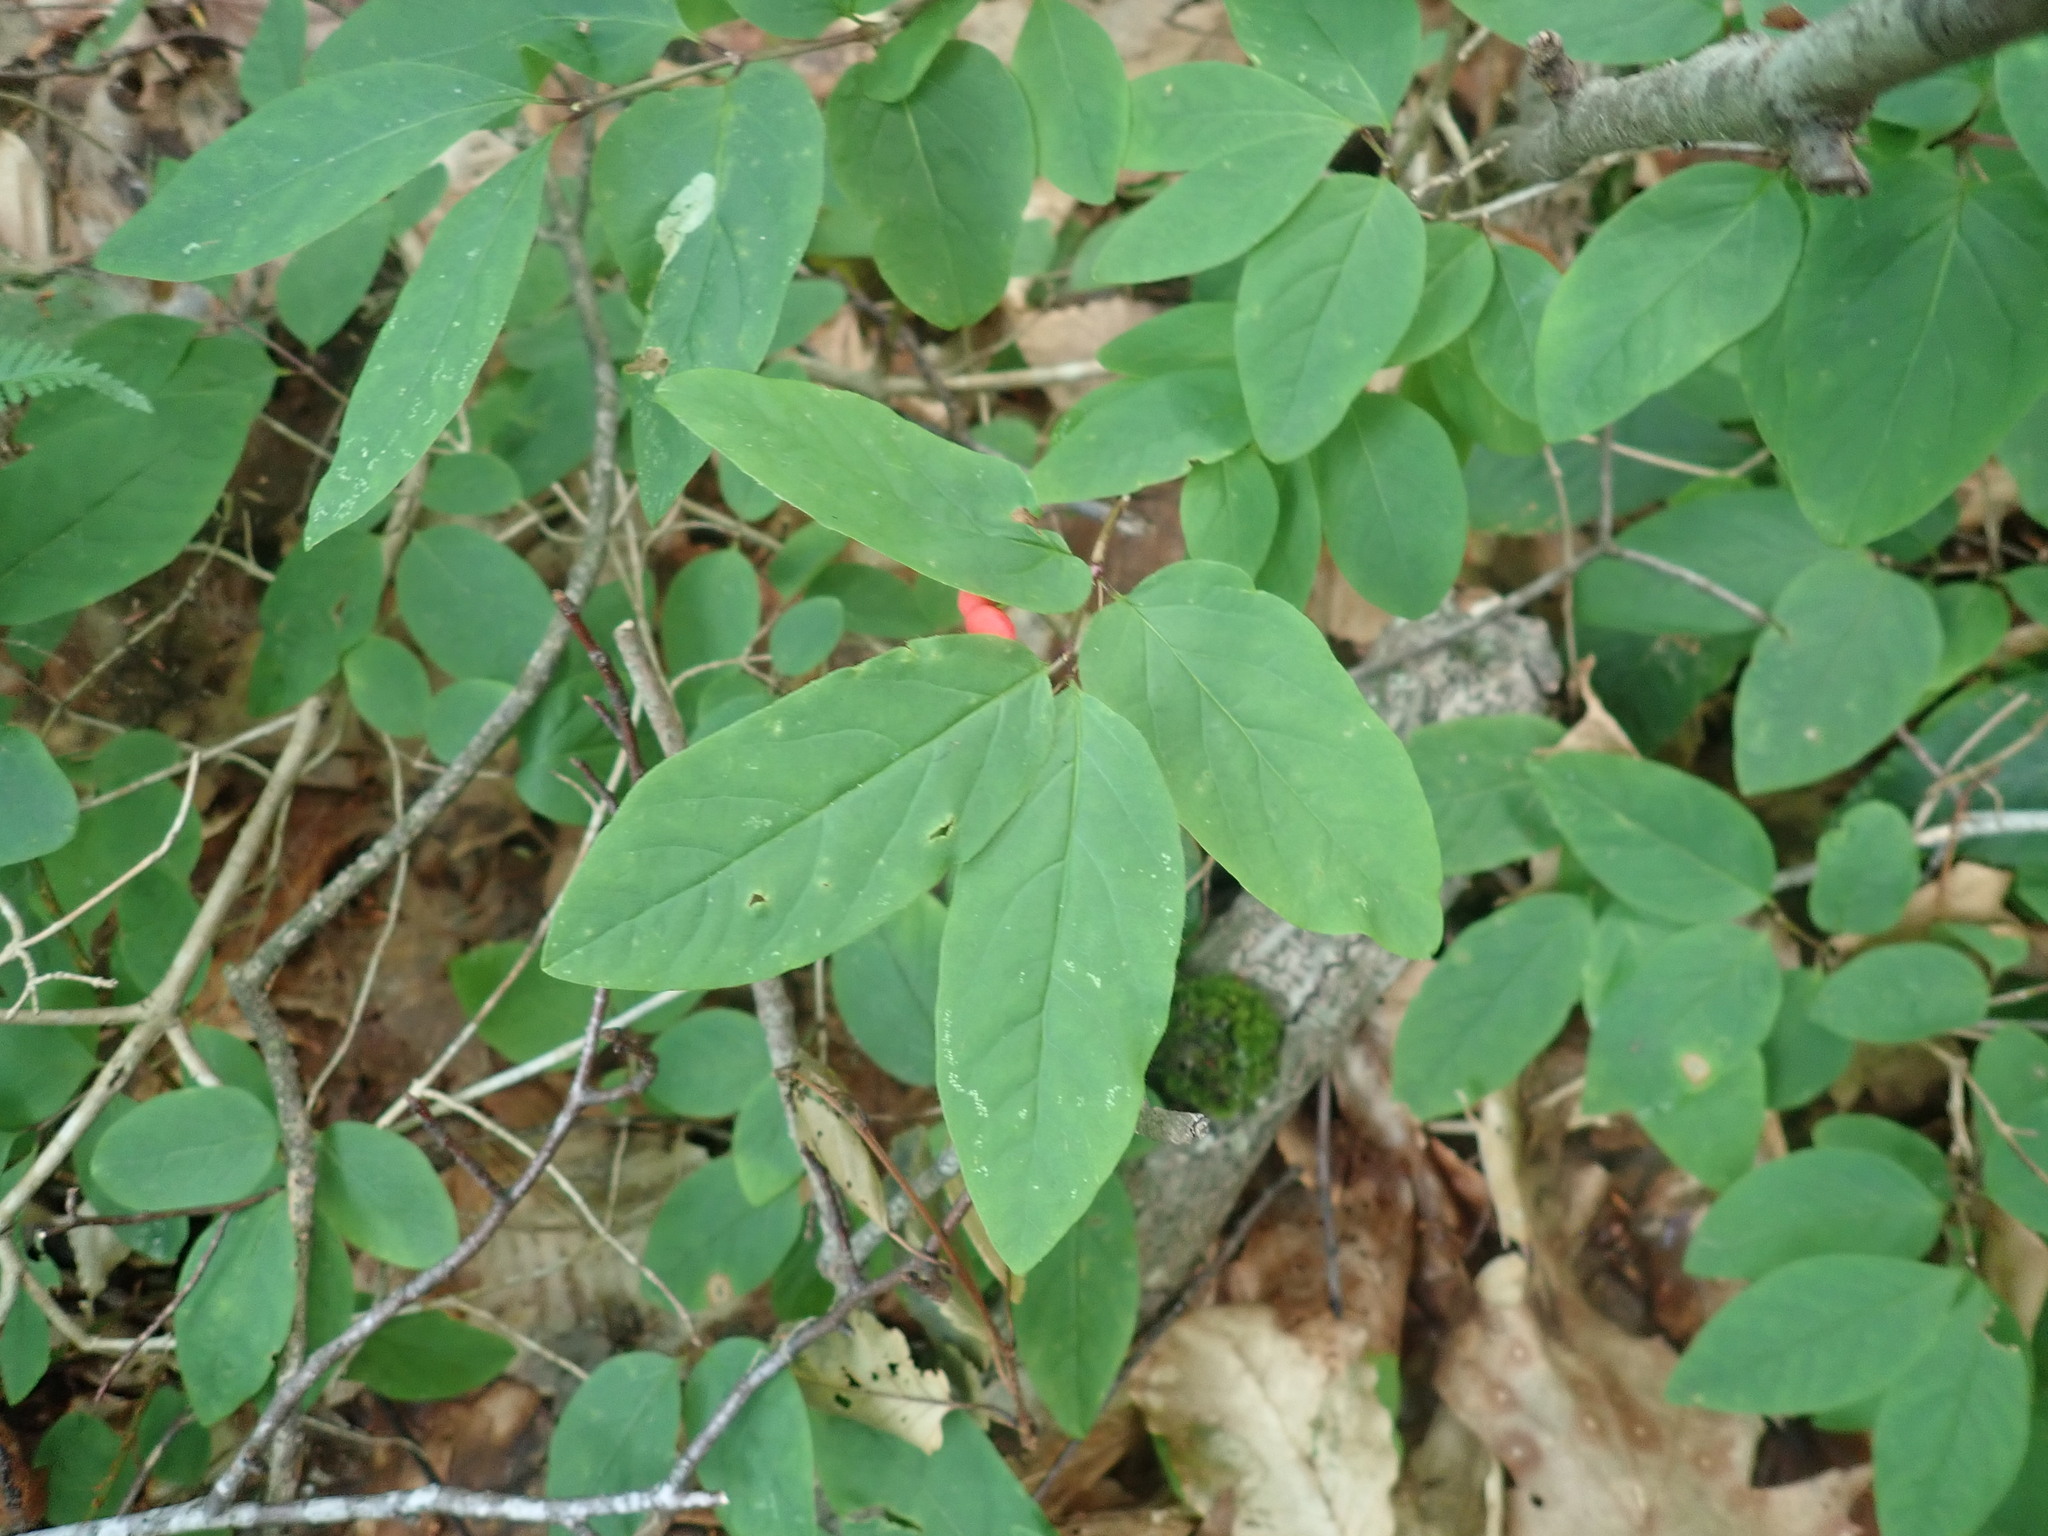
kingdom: Plantae
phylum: Tracheophyta
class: Magnoliopsida
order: Dipsacales
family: Caprifoliaceae
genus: Lonicera
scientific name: Lonicera canadensis
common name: American fly-honeysuckle
